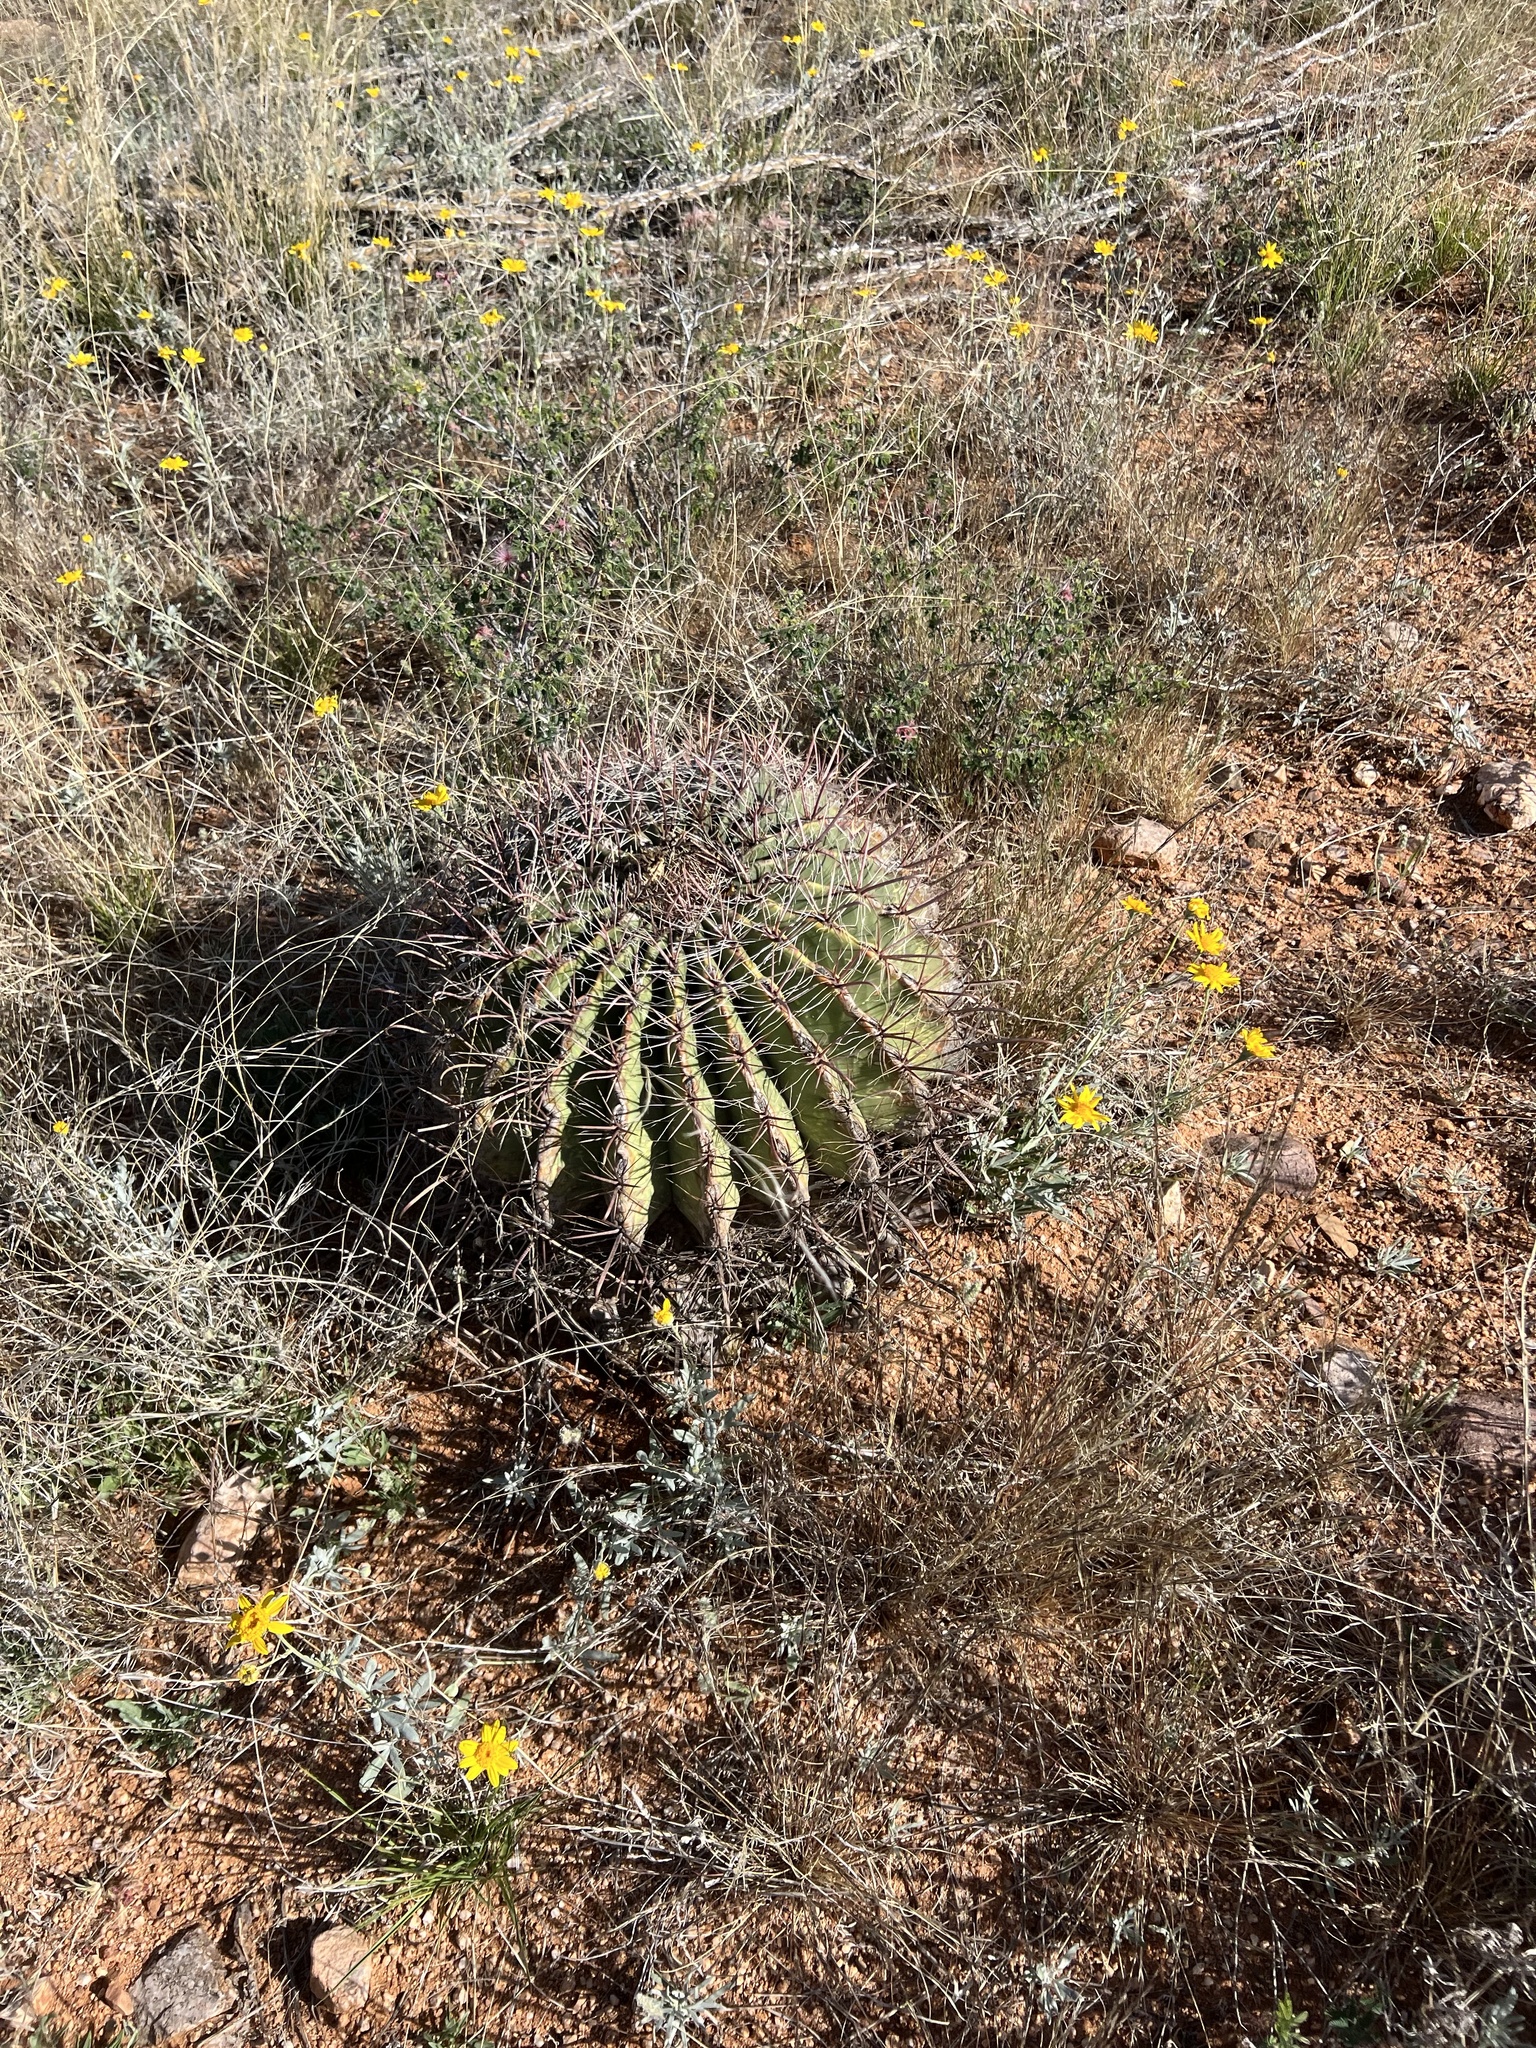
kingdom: Plantae
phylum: Tracheophyta
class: Magnoliopsida
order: Caryophyllales
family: Cactaceae
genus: Ferocactus
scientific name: Ferocactus wislizeni
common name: Candy barrel cactus
